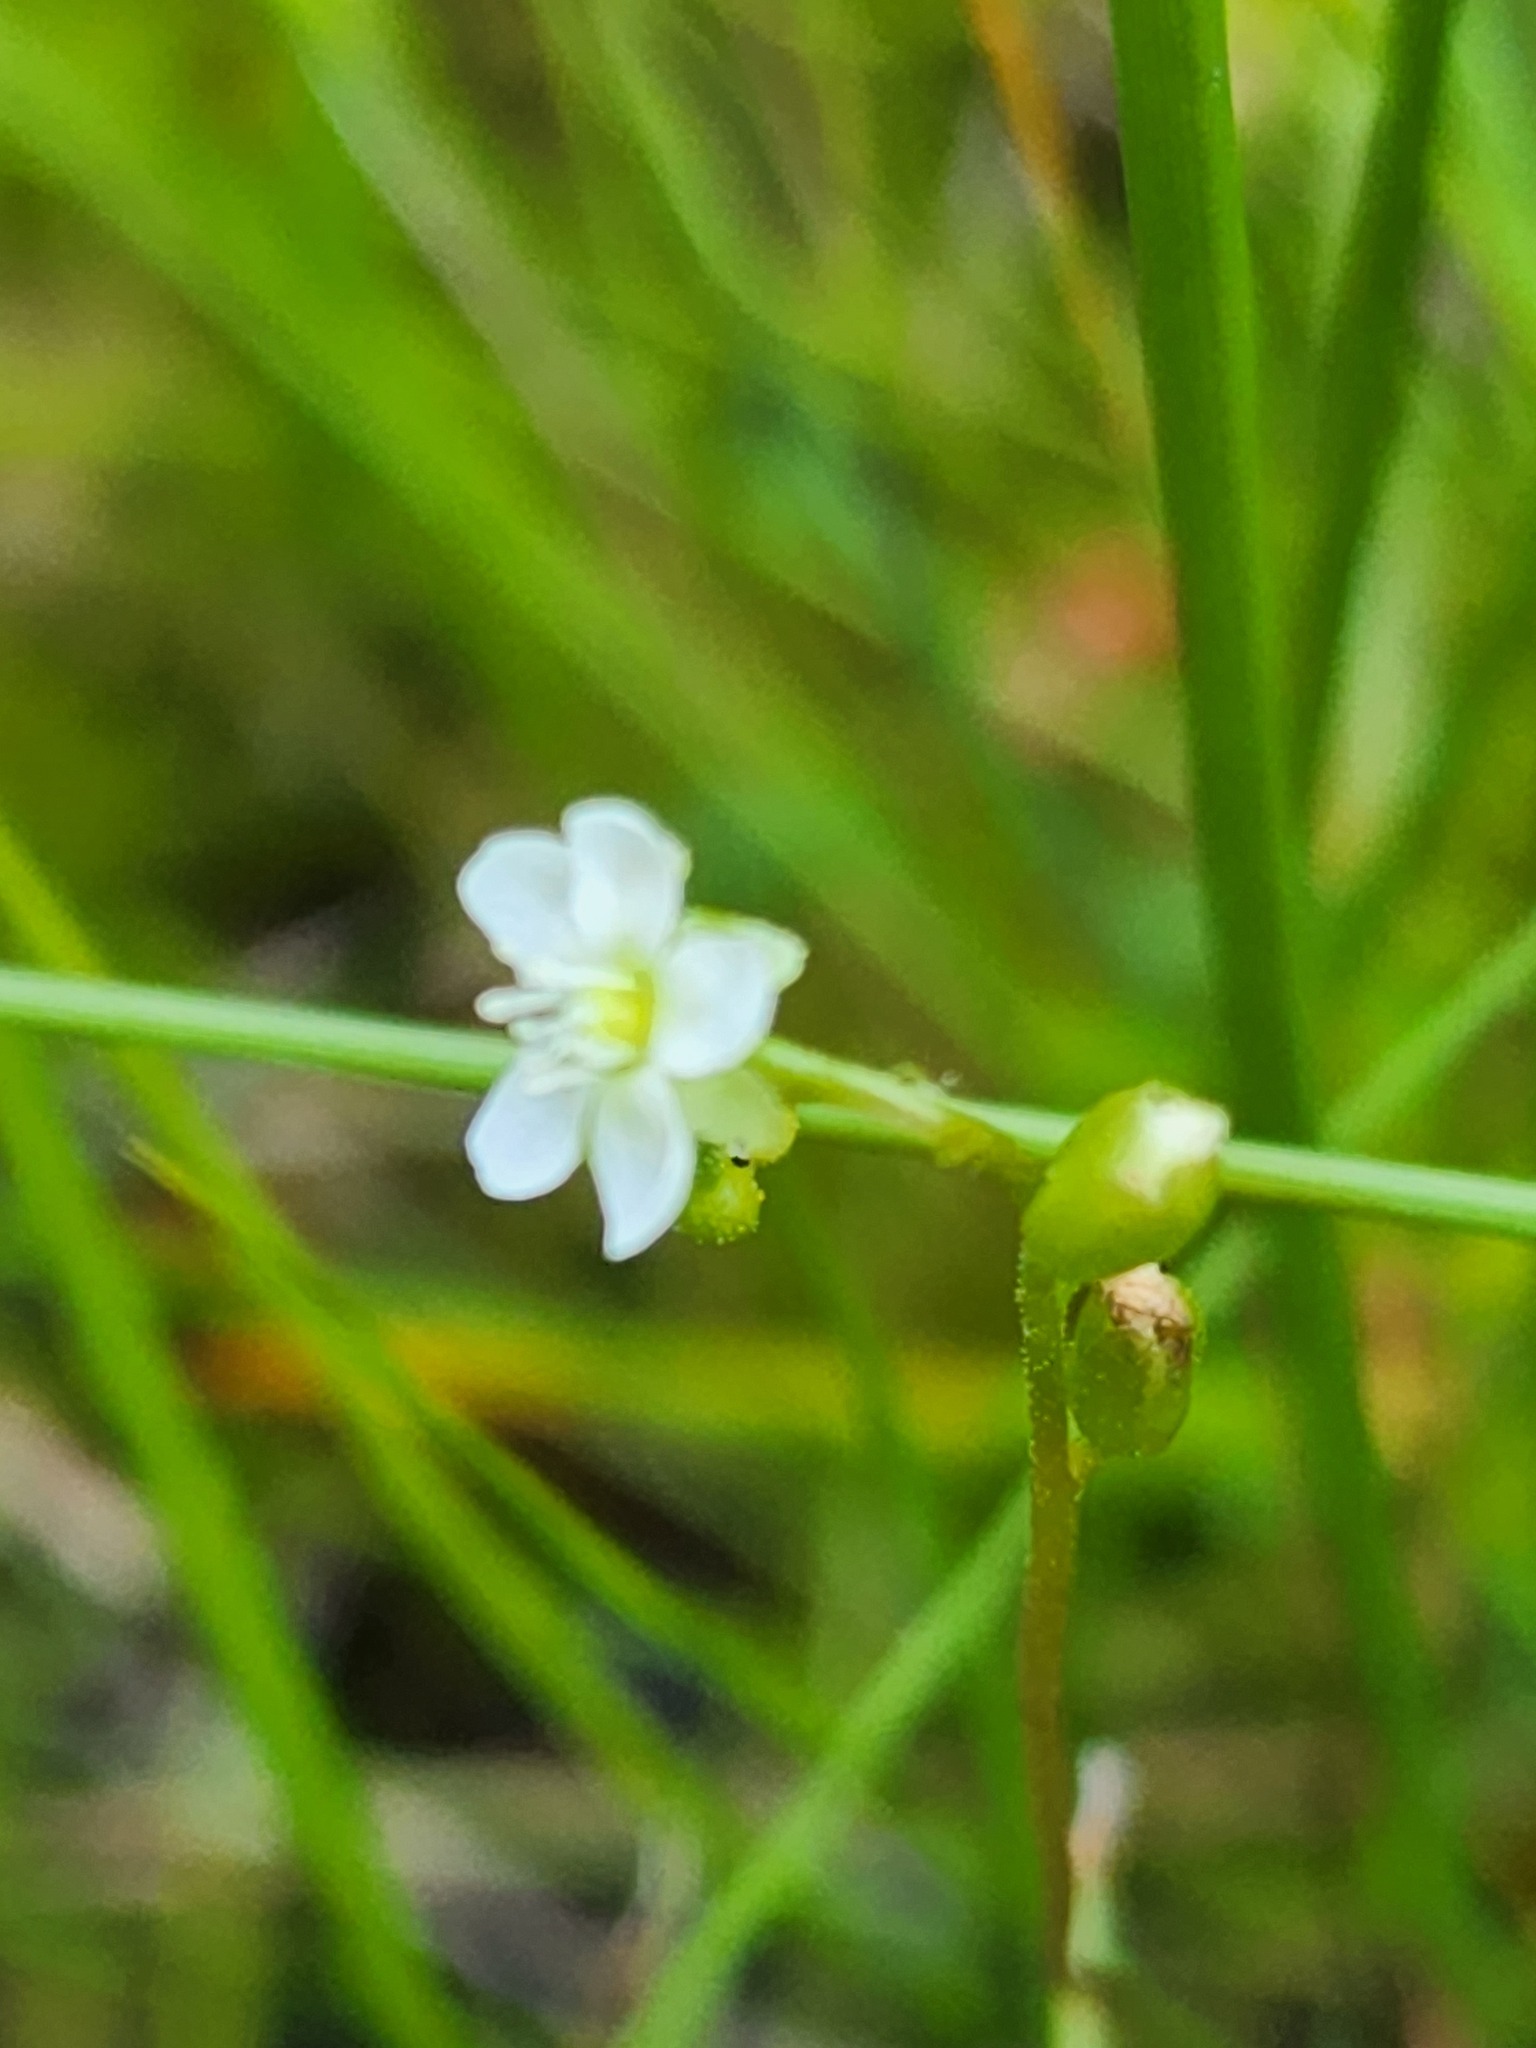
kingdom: Plantae
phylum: Tracheophyta
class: Magnoliopsida
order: Caryophyllales
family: Droseraceae
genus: Drosera
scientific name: Drosera rotundifolia
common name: Round-leaved sundew
